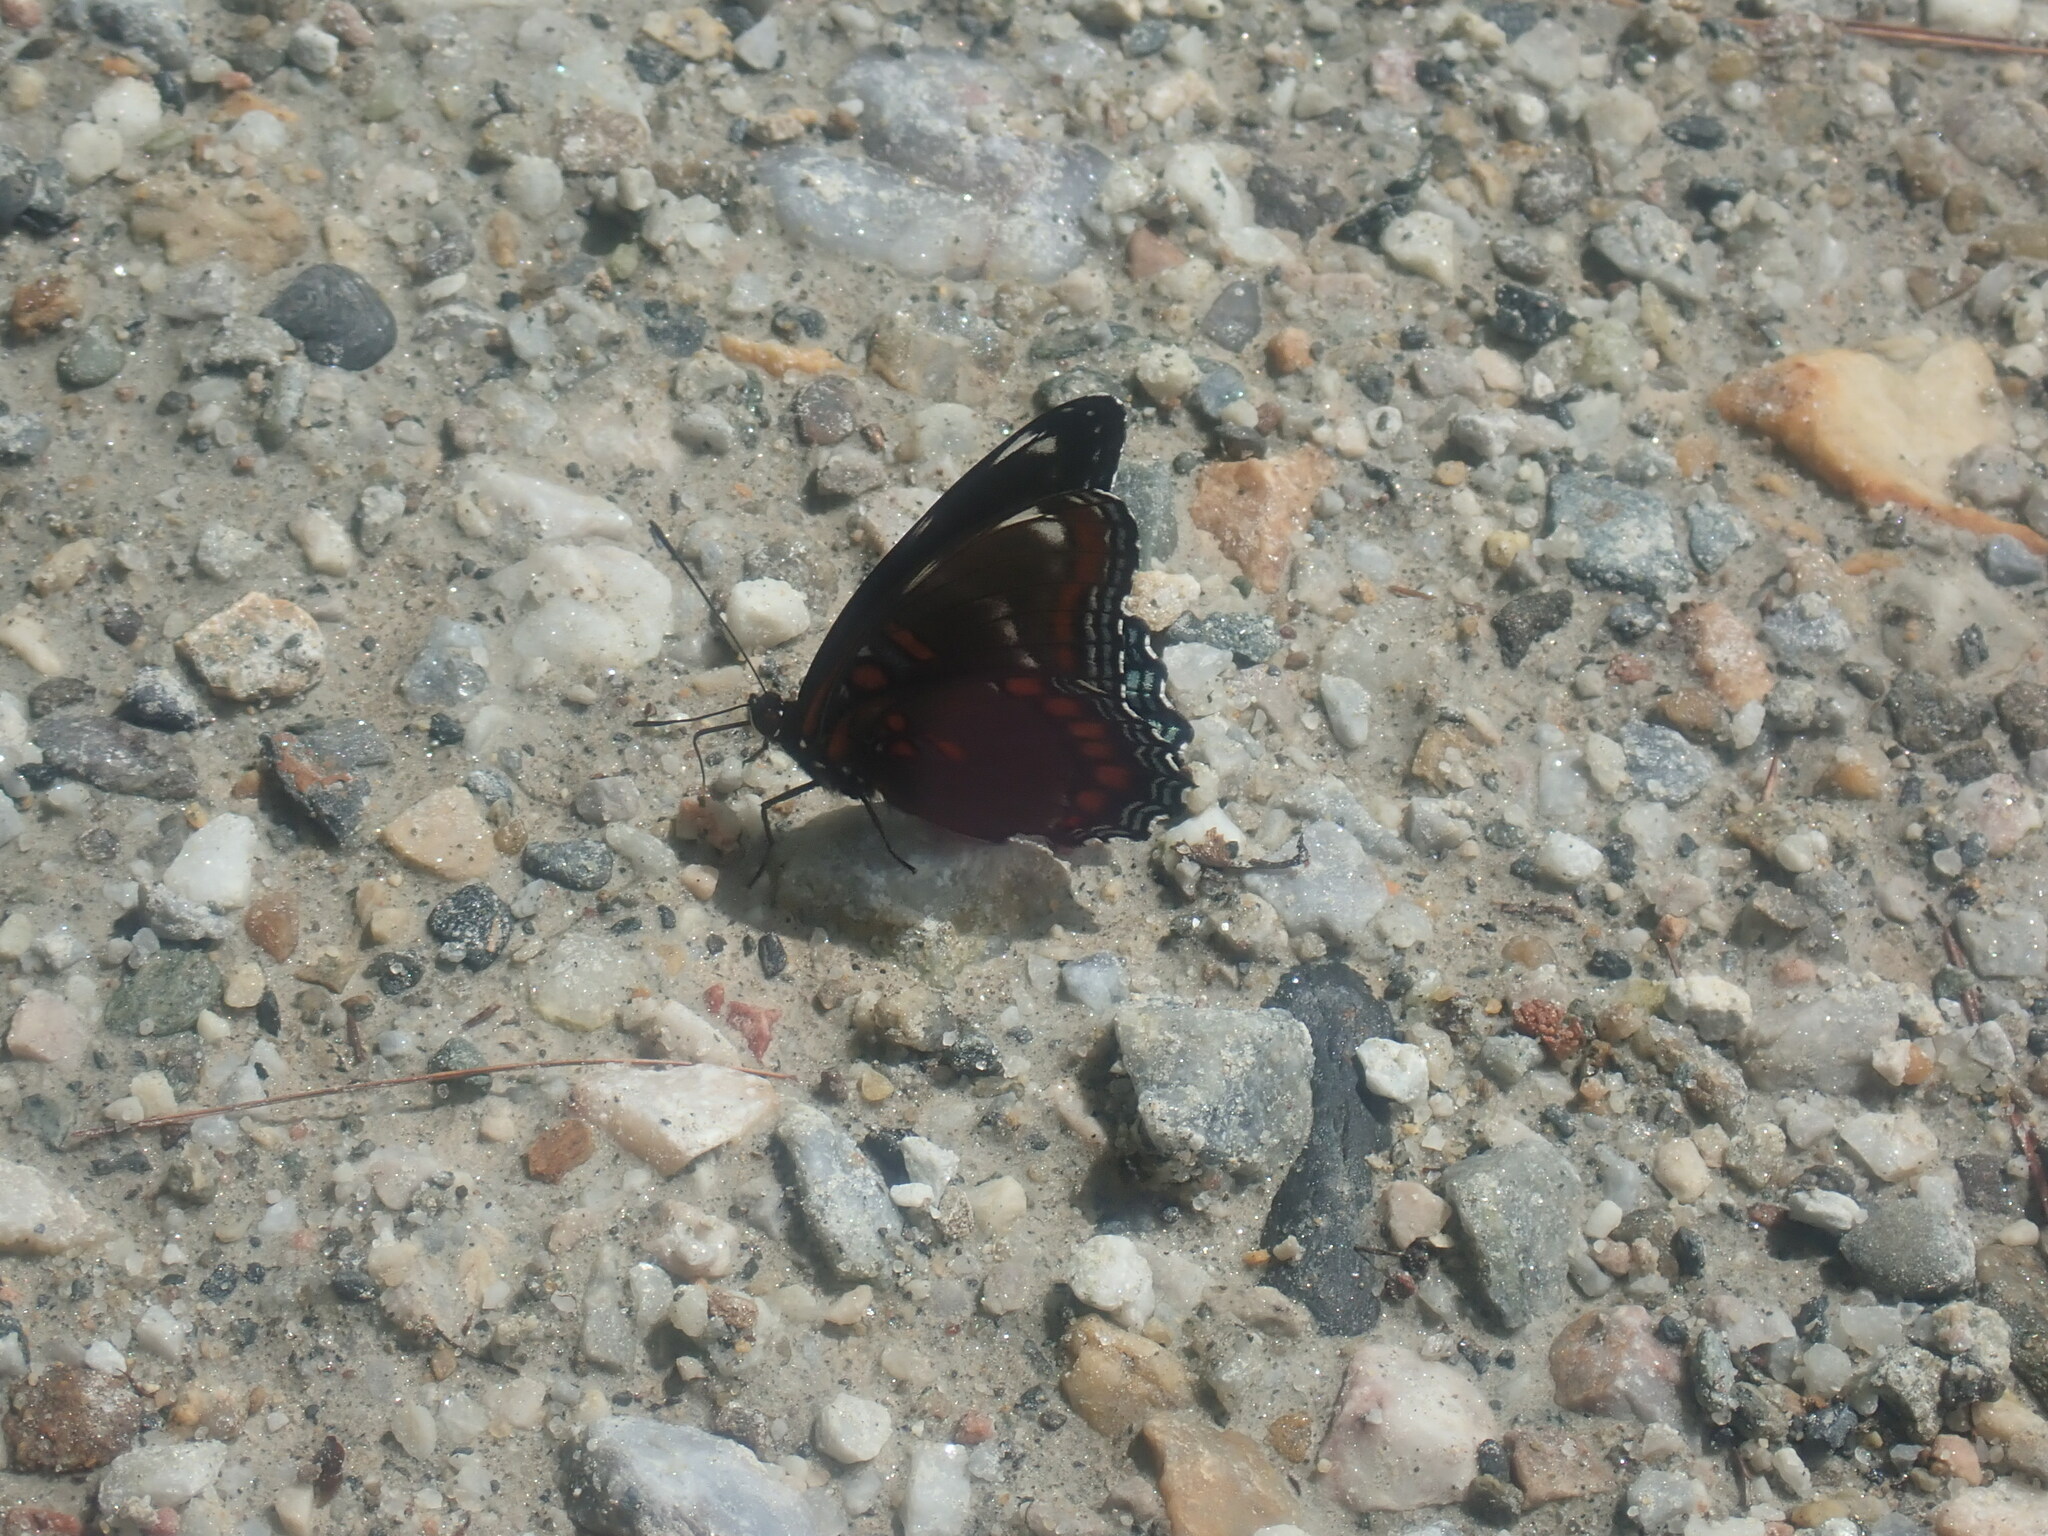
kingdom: Animalia
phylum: Arthropoda
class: Insecta
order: Lepidoptera
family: Nymphalidae
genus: Limenitis
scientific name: Limenitis arthemis
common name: Red-spotted admiral
